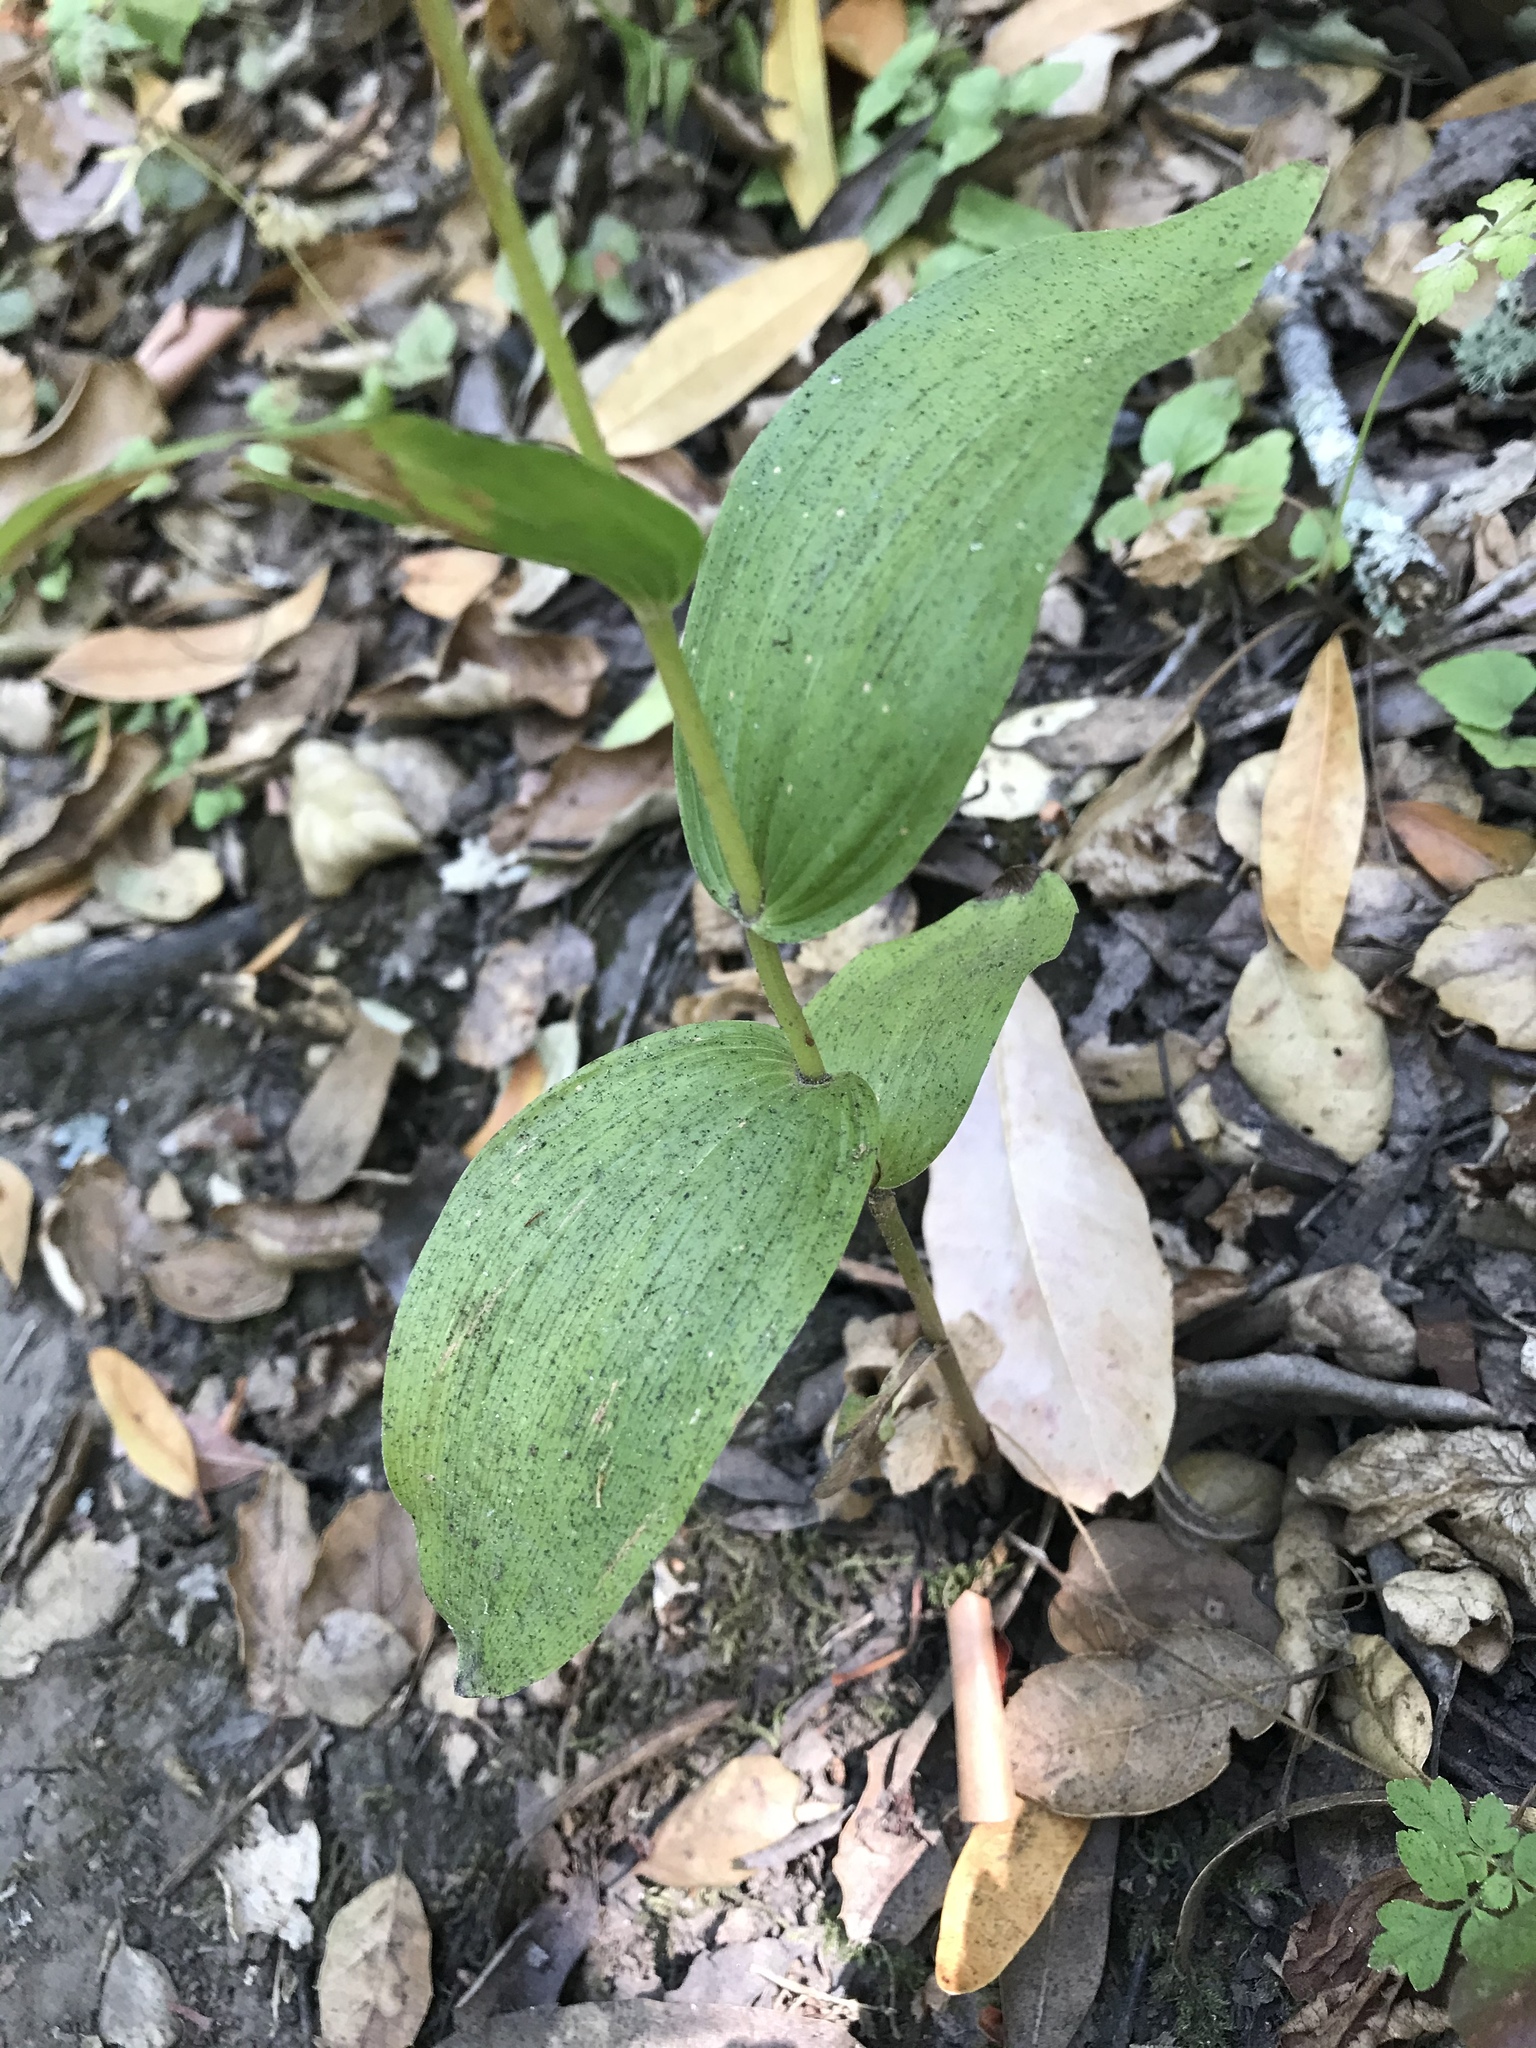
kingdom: Plantae
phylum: Tracheophyta
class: Liliopsida
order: Asparagales
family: Orchidaceae
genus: Epipactis
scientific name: Epipactis helleborine
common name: Broad-leaved helleborine
